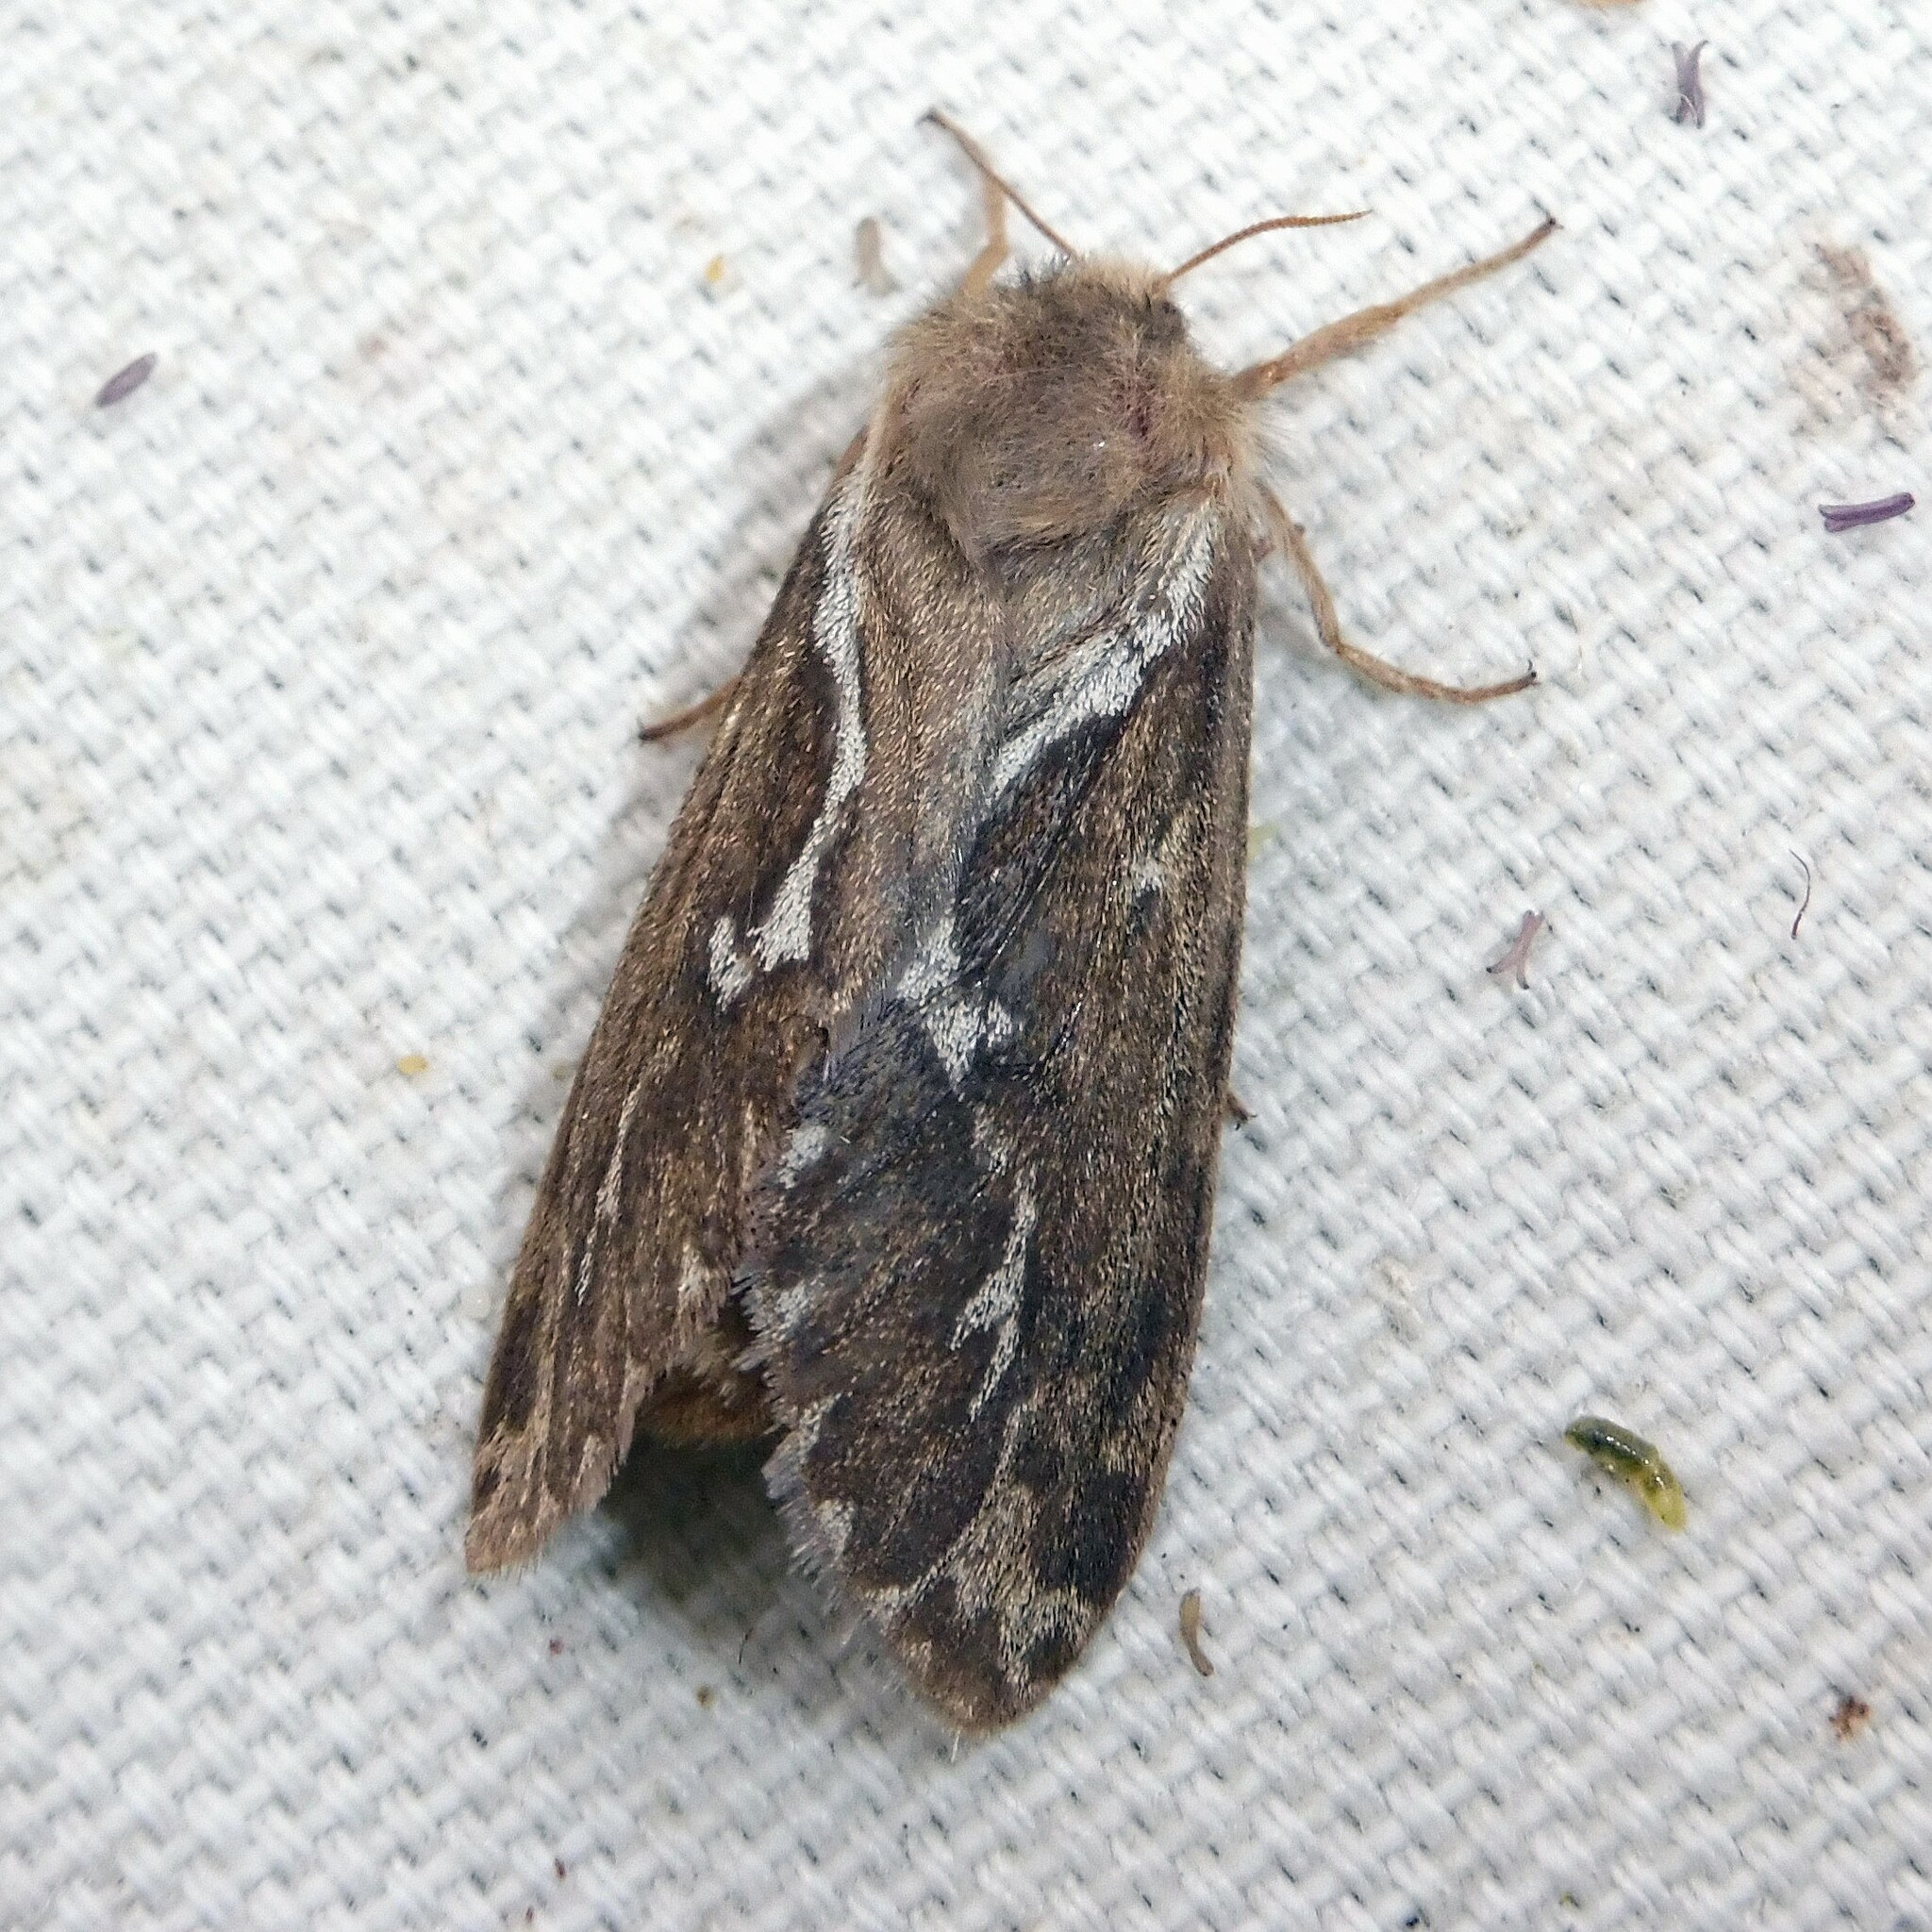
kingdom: Animalia
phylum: Arthropoda
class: Insecta
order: Lepidoptera
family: Hepialidae
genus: Korscheltellus
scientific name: Korscheltellus lupulina
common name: Common swift
